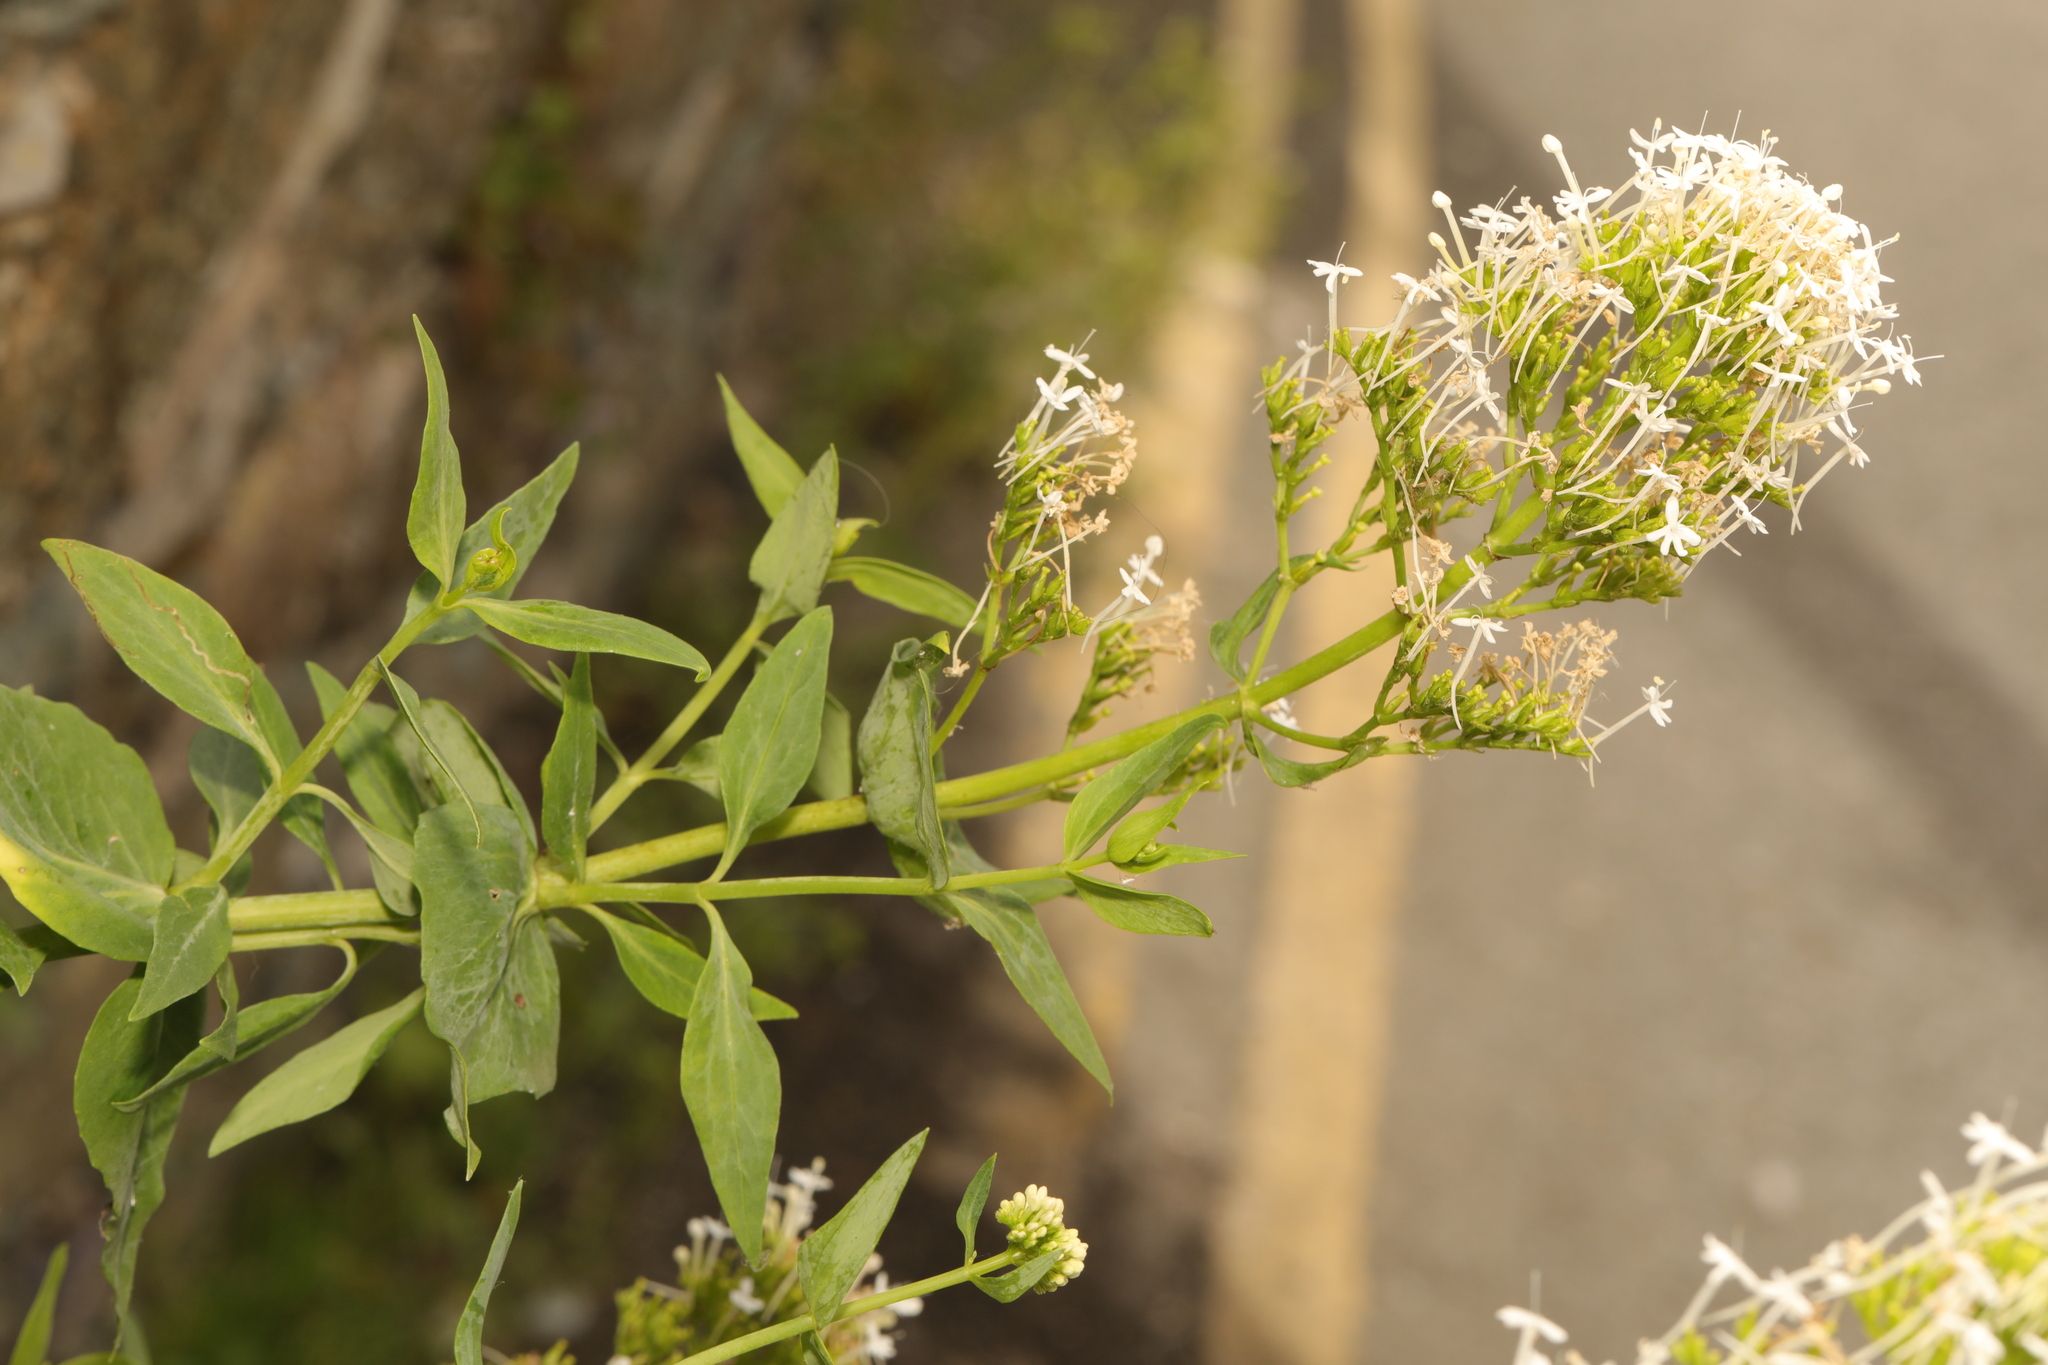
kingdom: Plantae
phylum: Tracheophyta
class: Magnoliopsida
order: Dipsacales
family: Caprifoliaceae
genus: Centranthus
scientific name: Centranthus ruber
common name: Red valerian
